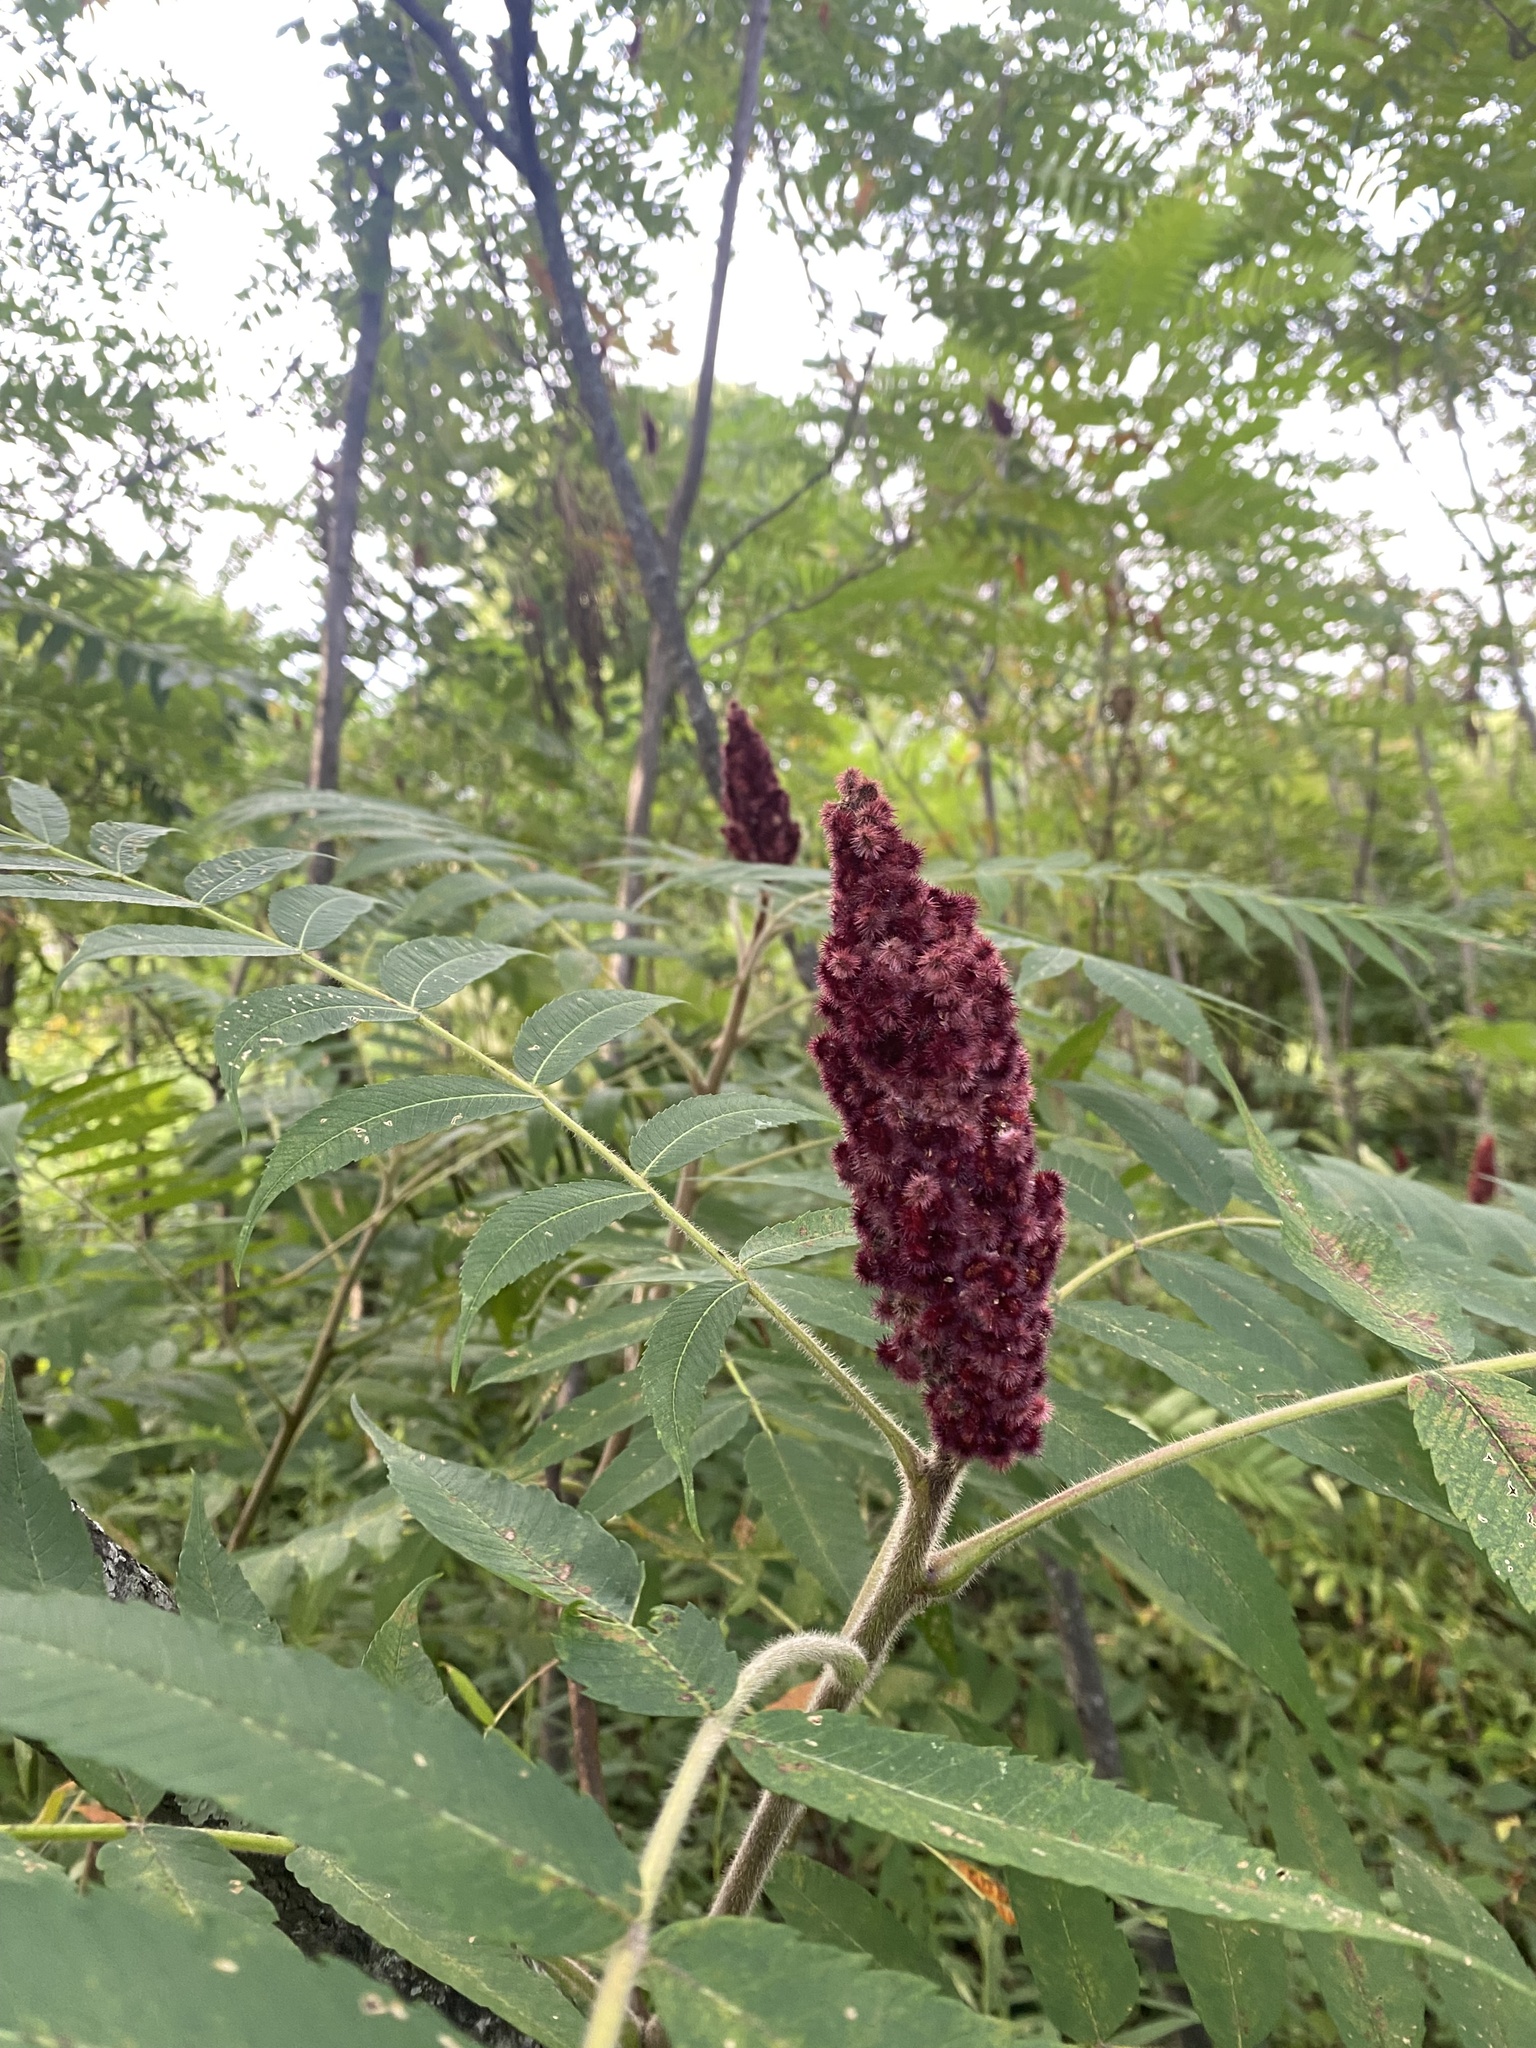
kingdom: Plantae
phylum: Tracheophyta
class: Magnoliopsida
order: Sapindales
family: Anacardiaceae
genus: Rhus
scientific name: Rhus typhina
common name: Staghorn sumac
